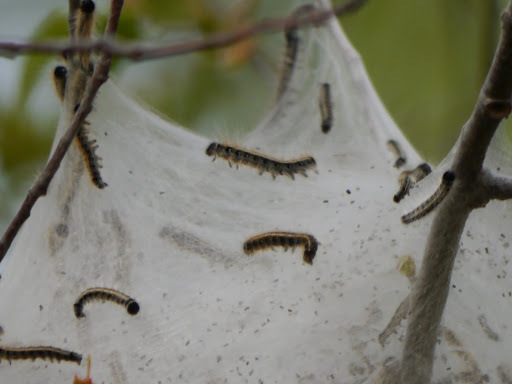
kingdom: Animalia
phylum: Arthropoda
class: Insecta
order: Lepidoptera
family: Lasiocampidae
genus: Malacosoma
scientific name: Malacosoma americana
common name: Eastern tent caterpillar moth
